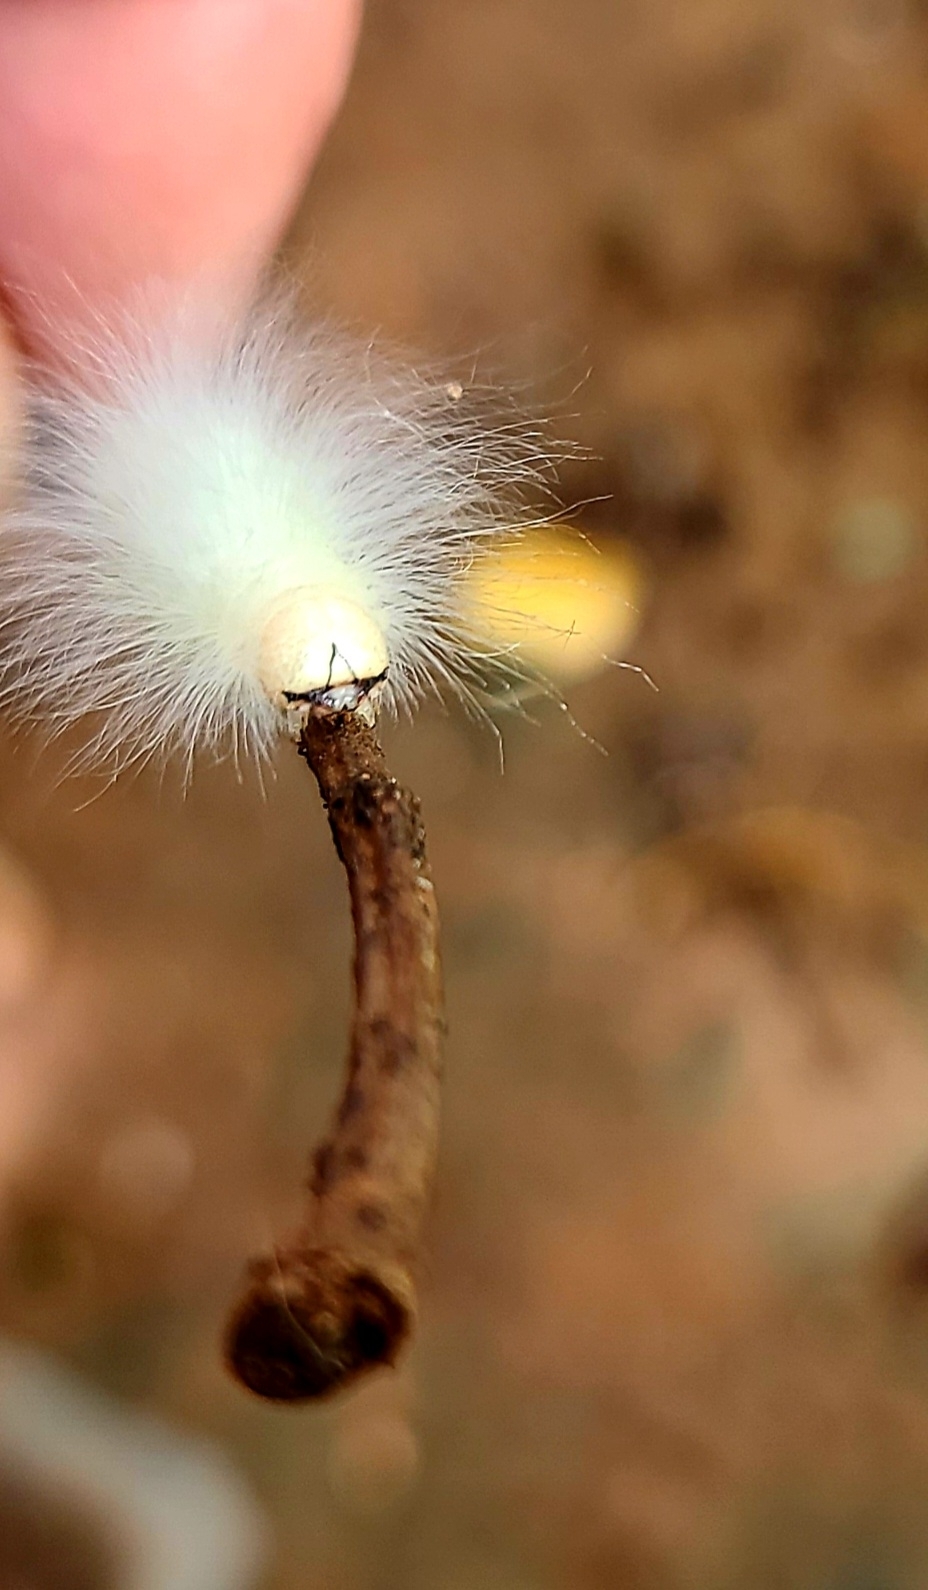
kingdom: Animalia
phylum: Arthropoda
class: Insecta
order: Lepidoptera
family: Noctuidae
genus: Charadra
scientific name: Charadra deridens
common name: Marbled tuffet
